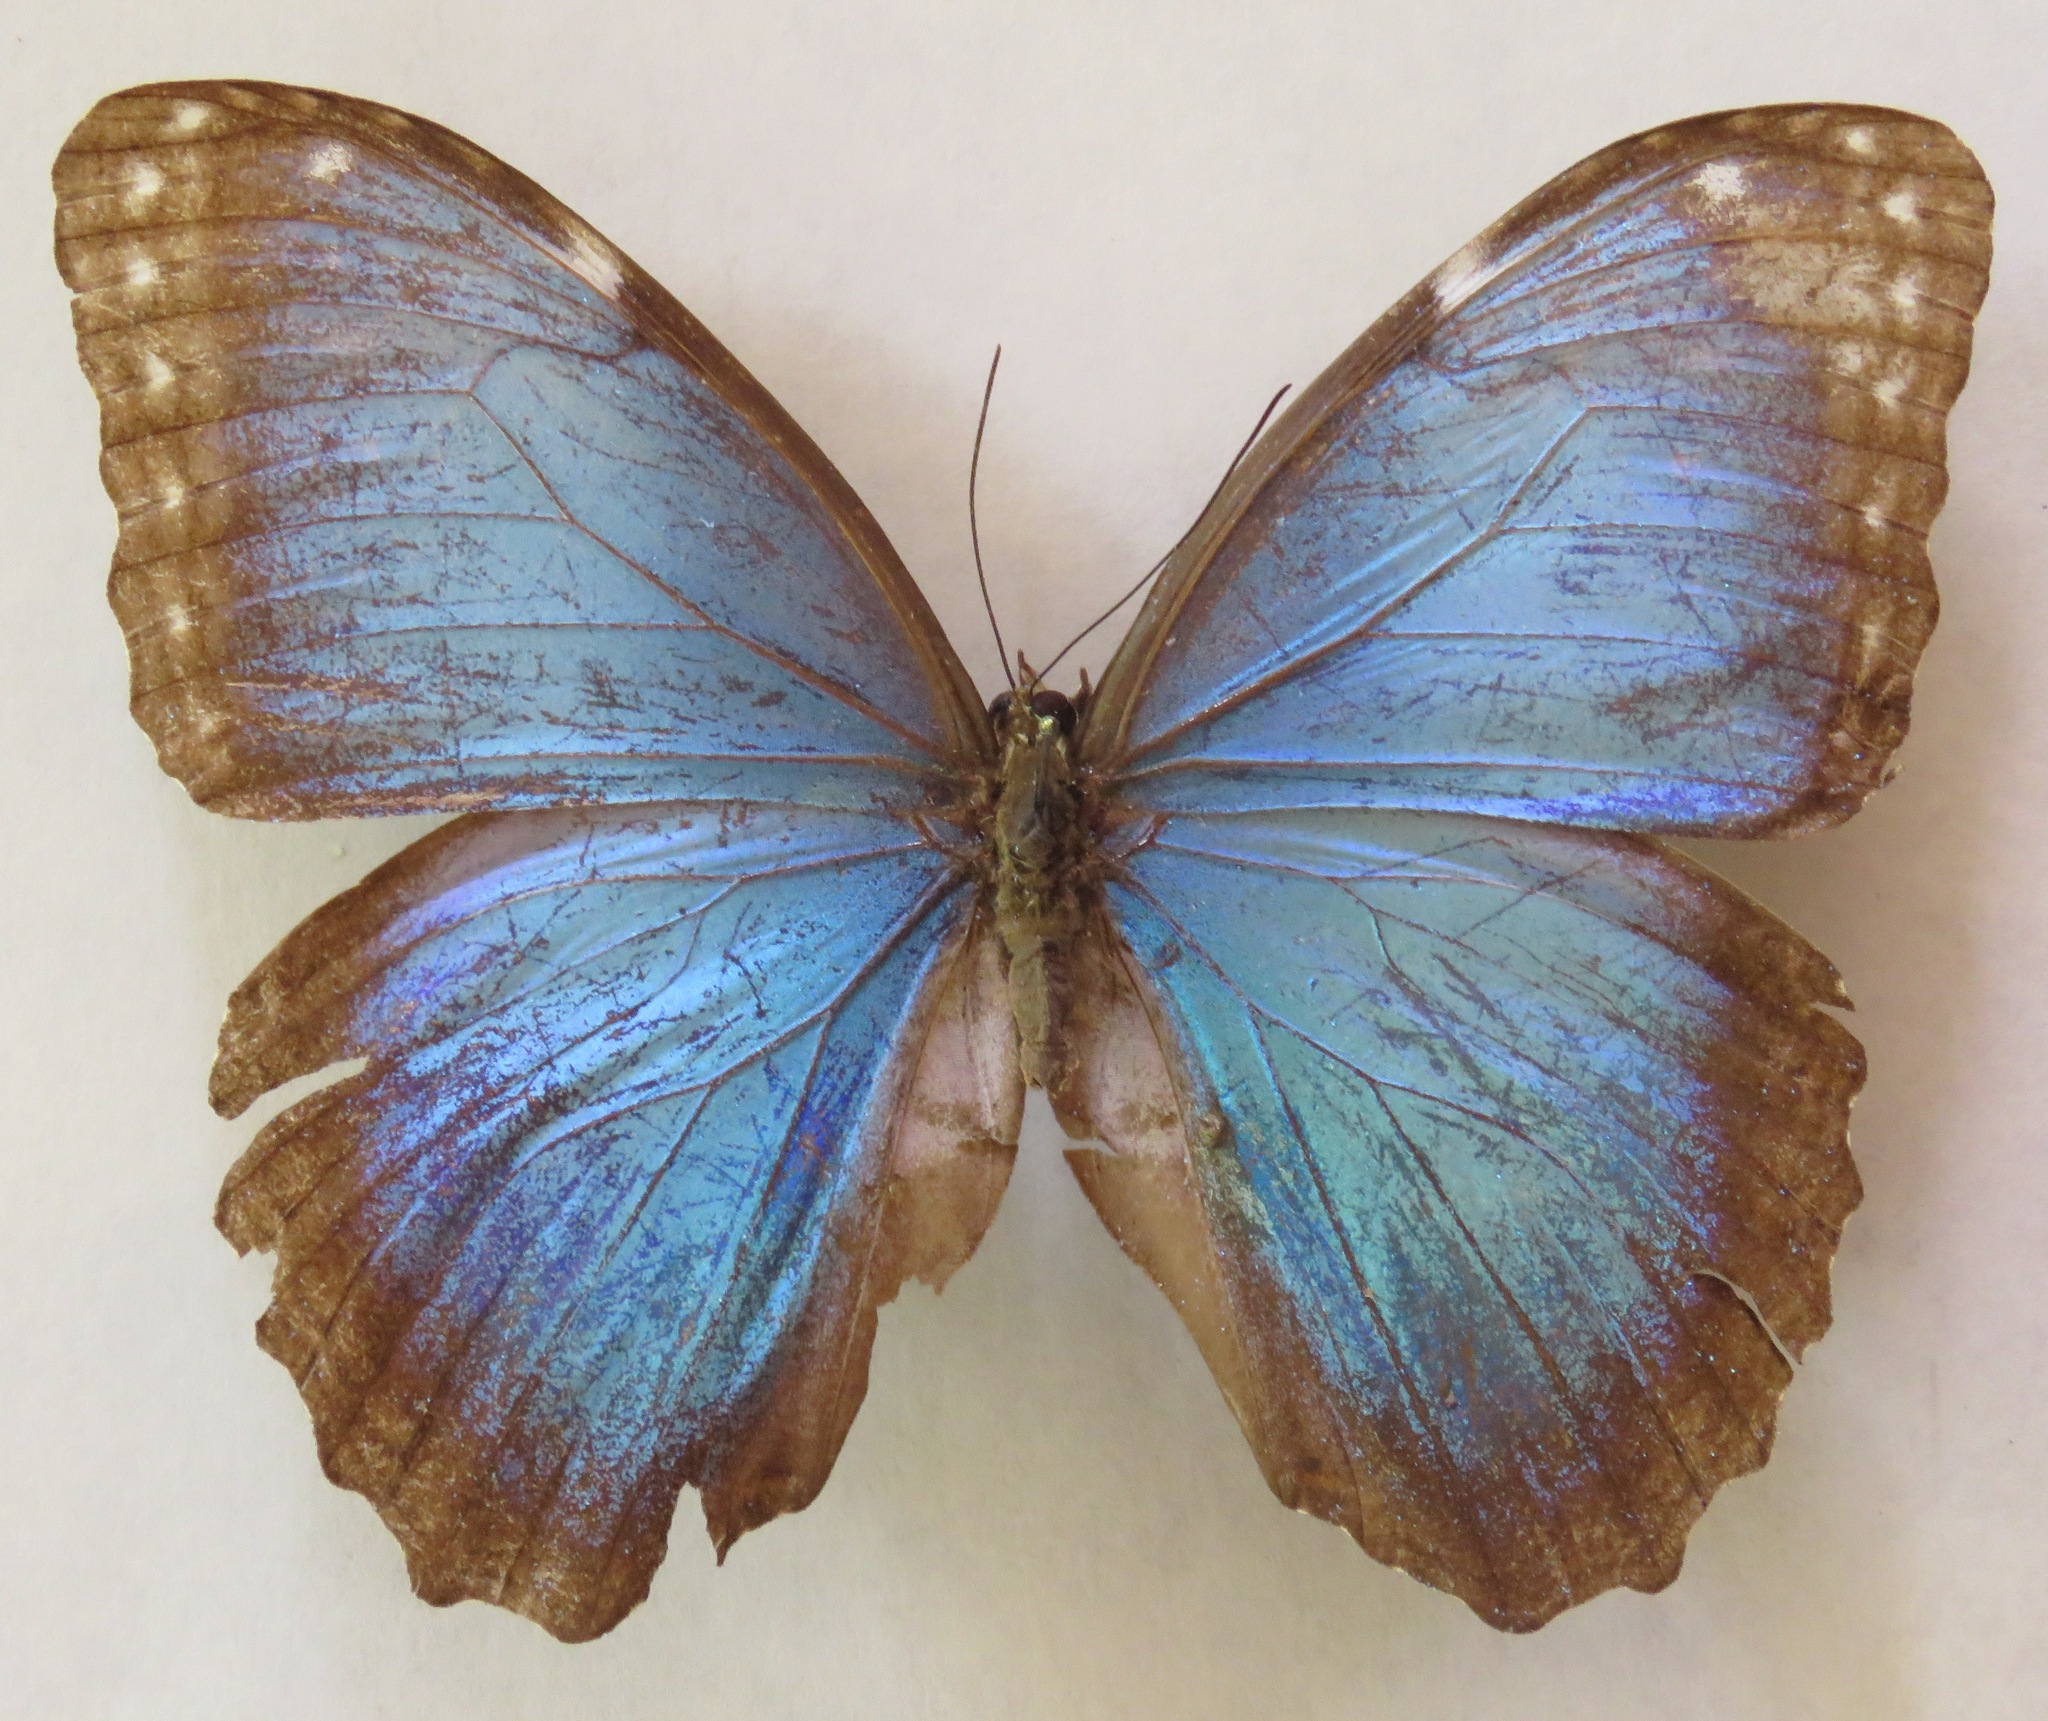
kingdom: Animalia
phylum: Arthropoda
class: Insecta
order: Lepidoptera
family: Nymphalidae
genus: Morpho
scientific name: Morpho helenor
